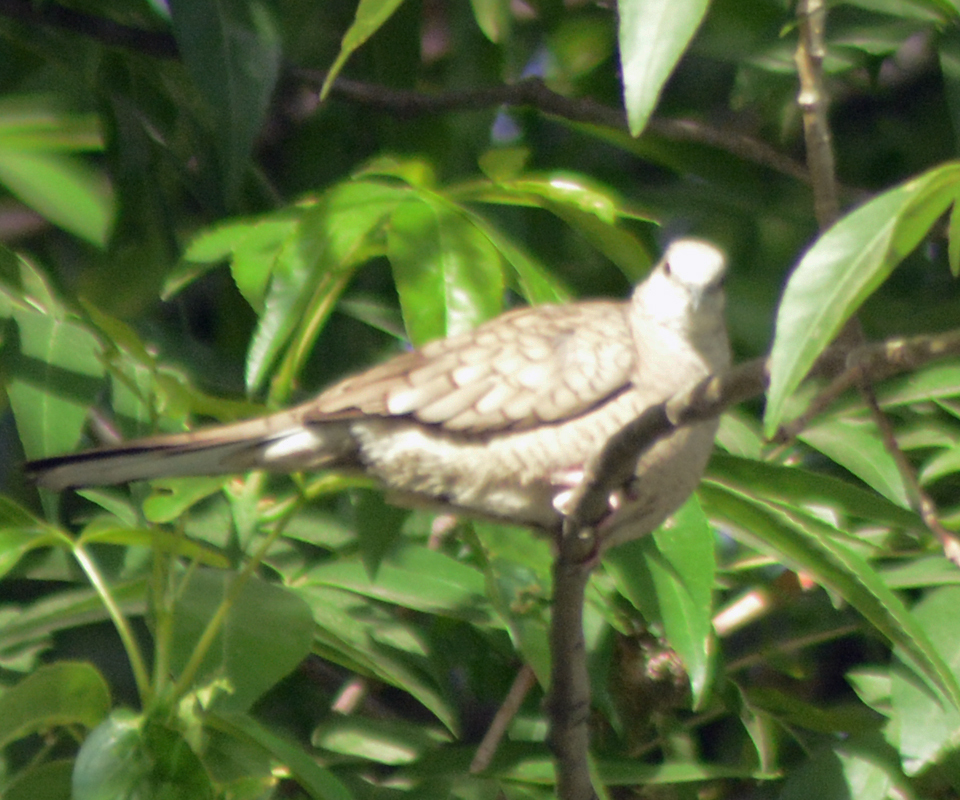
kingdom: Animalia
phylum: Chordata
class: Aves
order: Columbiformes
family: Columbidae
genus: Columbina
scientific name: Columbina inca
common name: Inca dove
